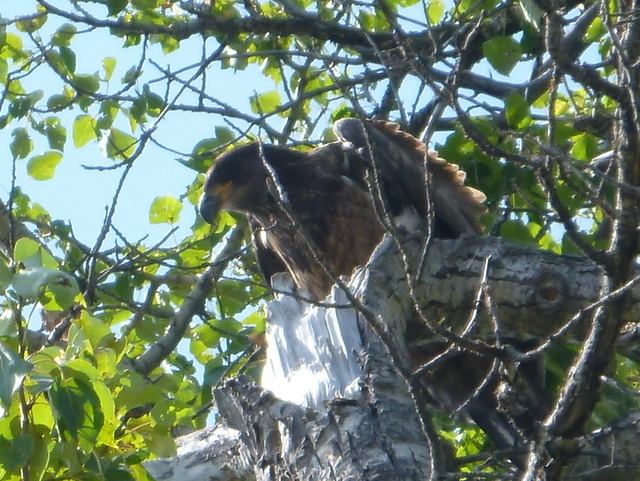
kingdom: Animalia
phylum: Chordata
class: Aves
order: Accipitriformes
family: Accipitridae
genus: Haliaeetus
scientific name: Haliaeetus leucocephalus
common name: Bald eagle
